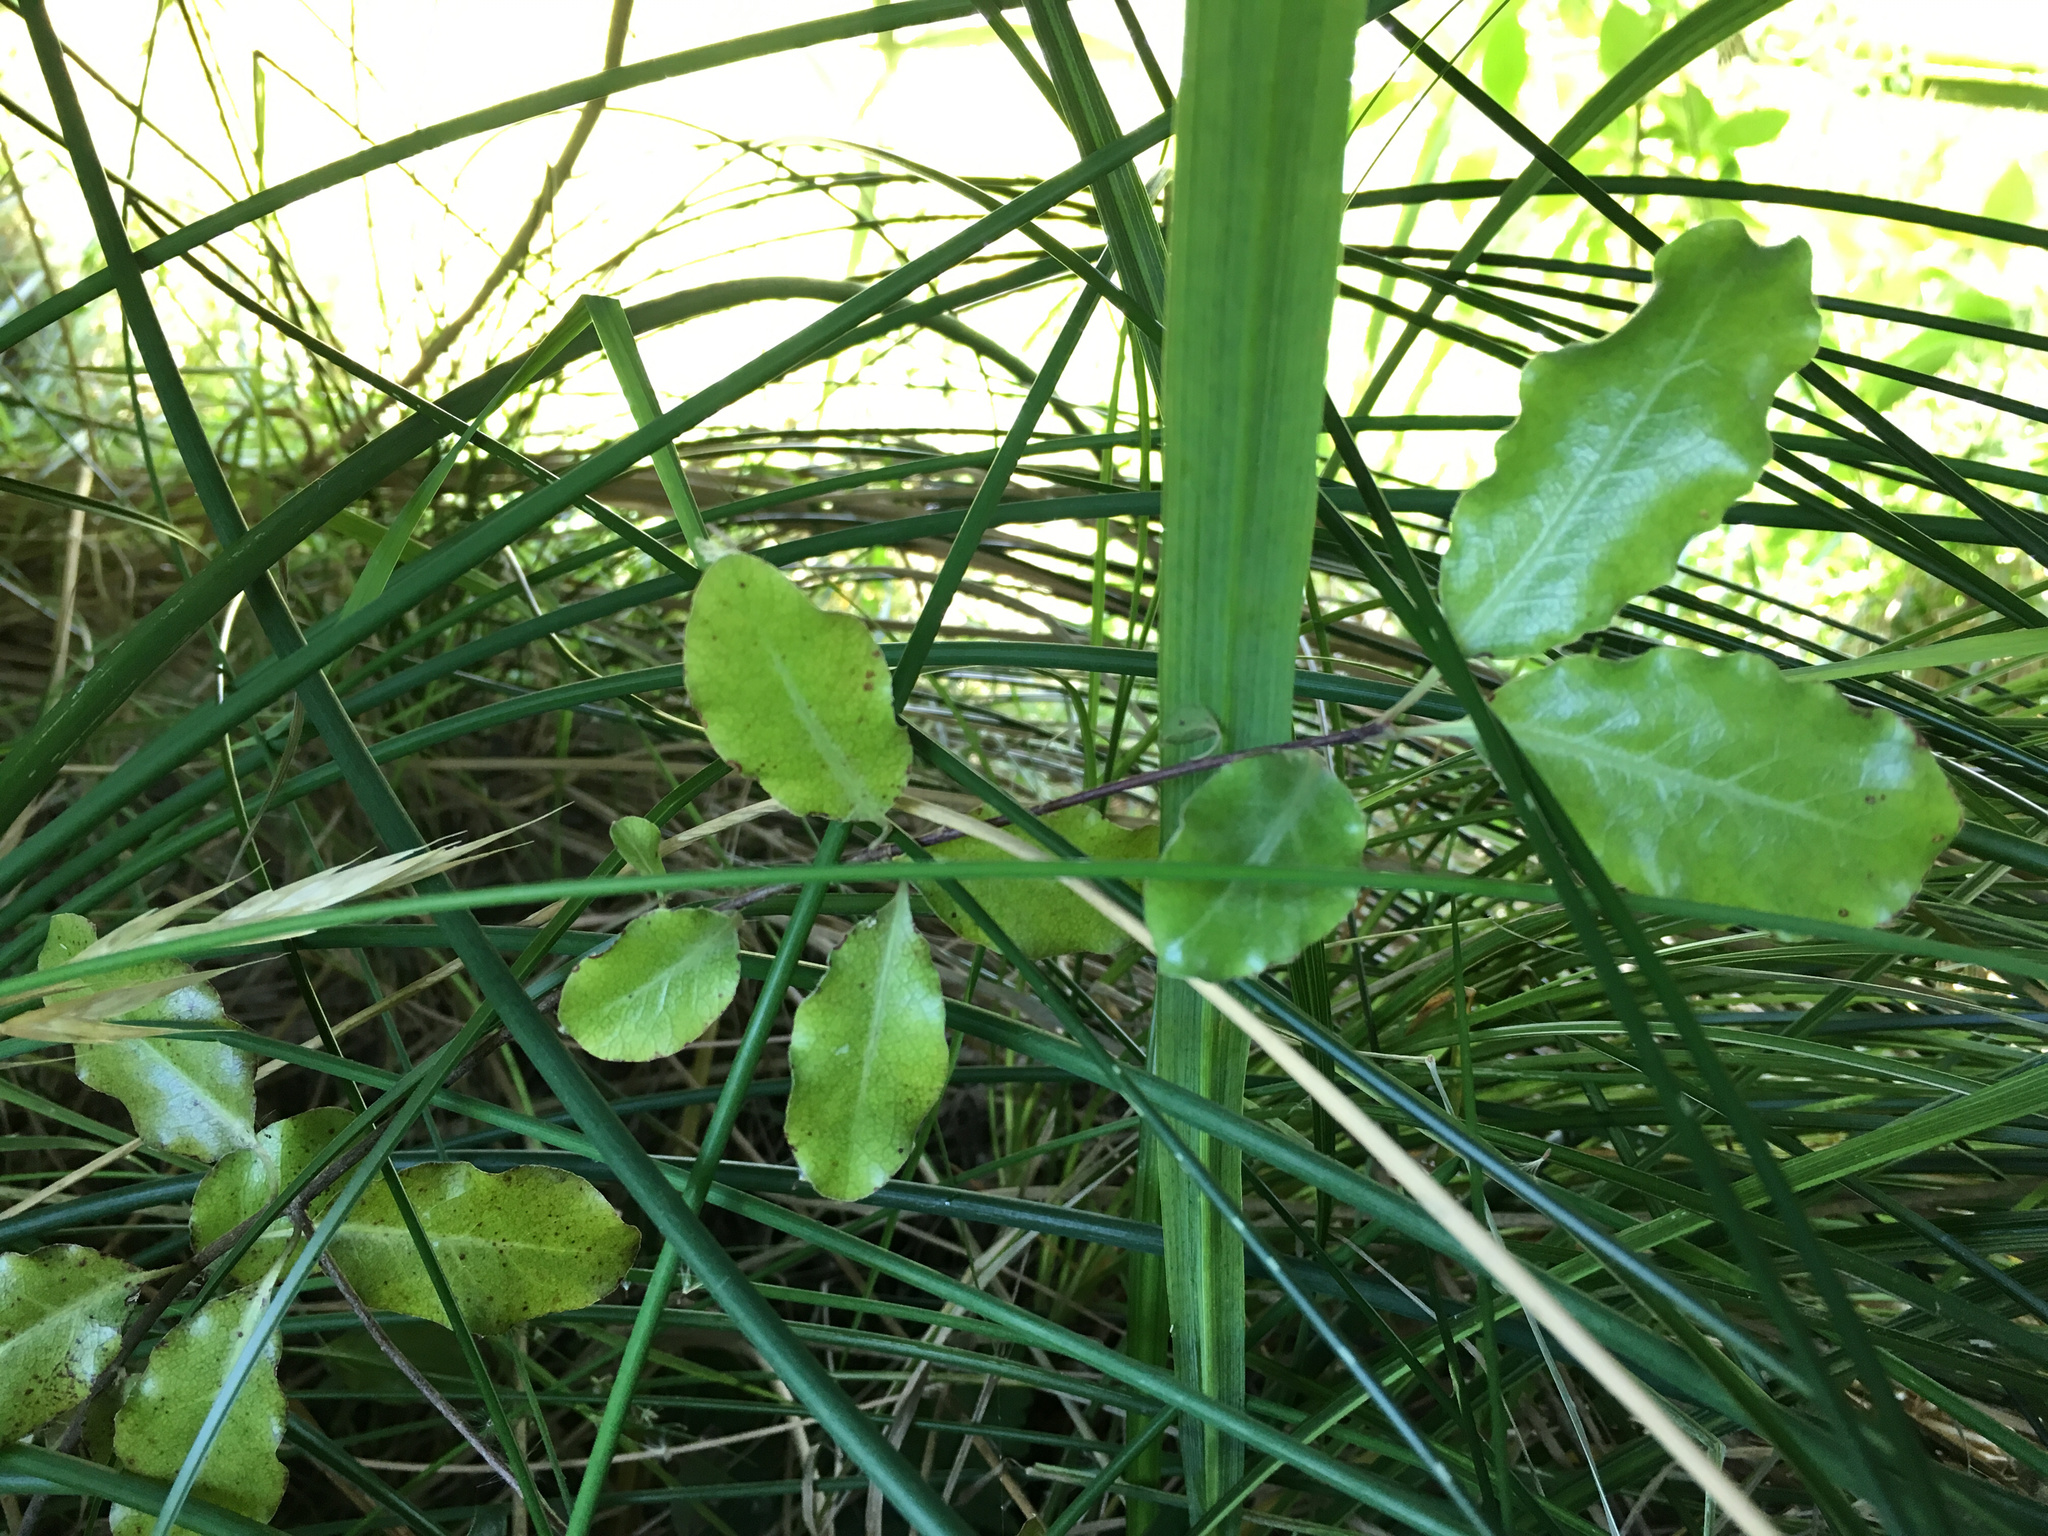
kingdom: Plantae
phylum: Tracheophyta
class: Magnoliopsida
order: Apiales
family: Pittosporaceae
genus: Pittosporum
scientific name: Pittosporum tenuifolium
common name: Kohuhu
